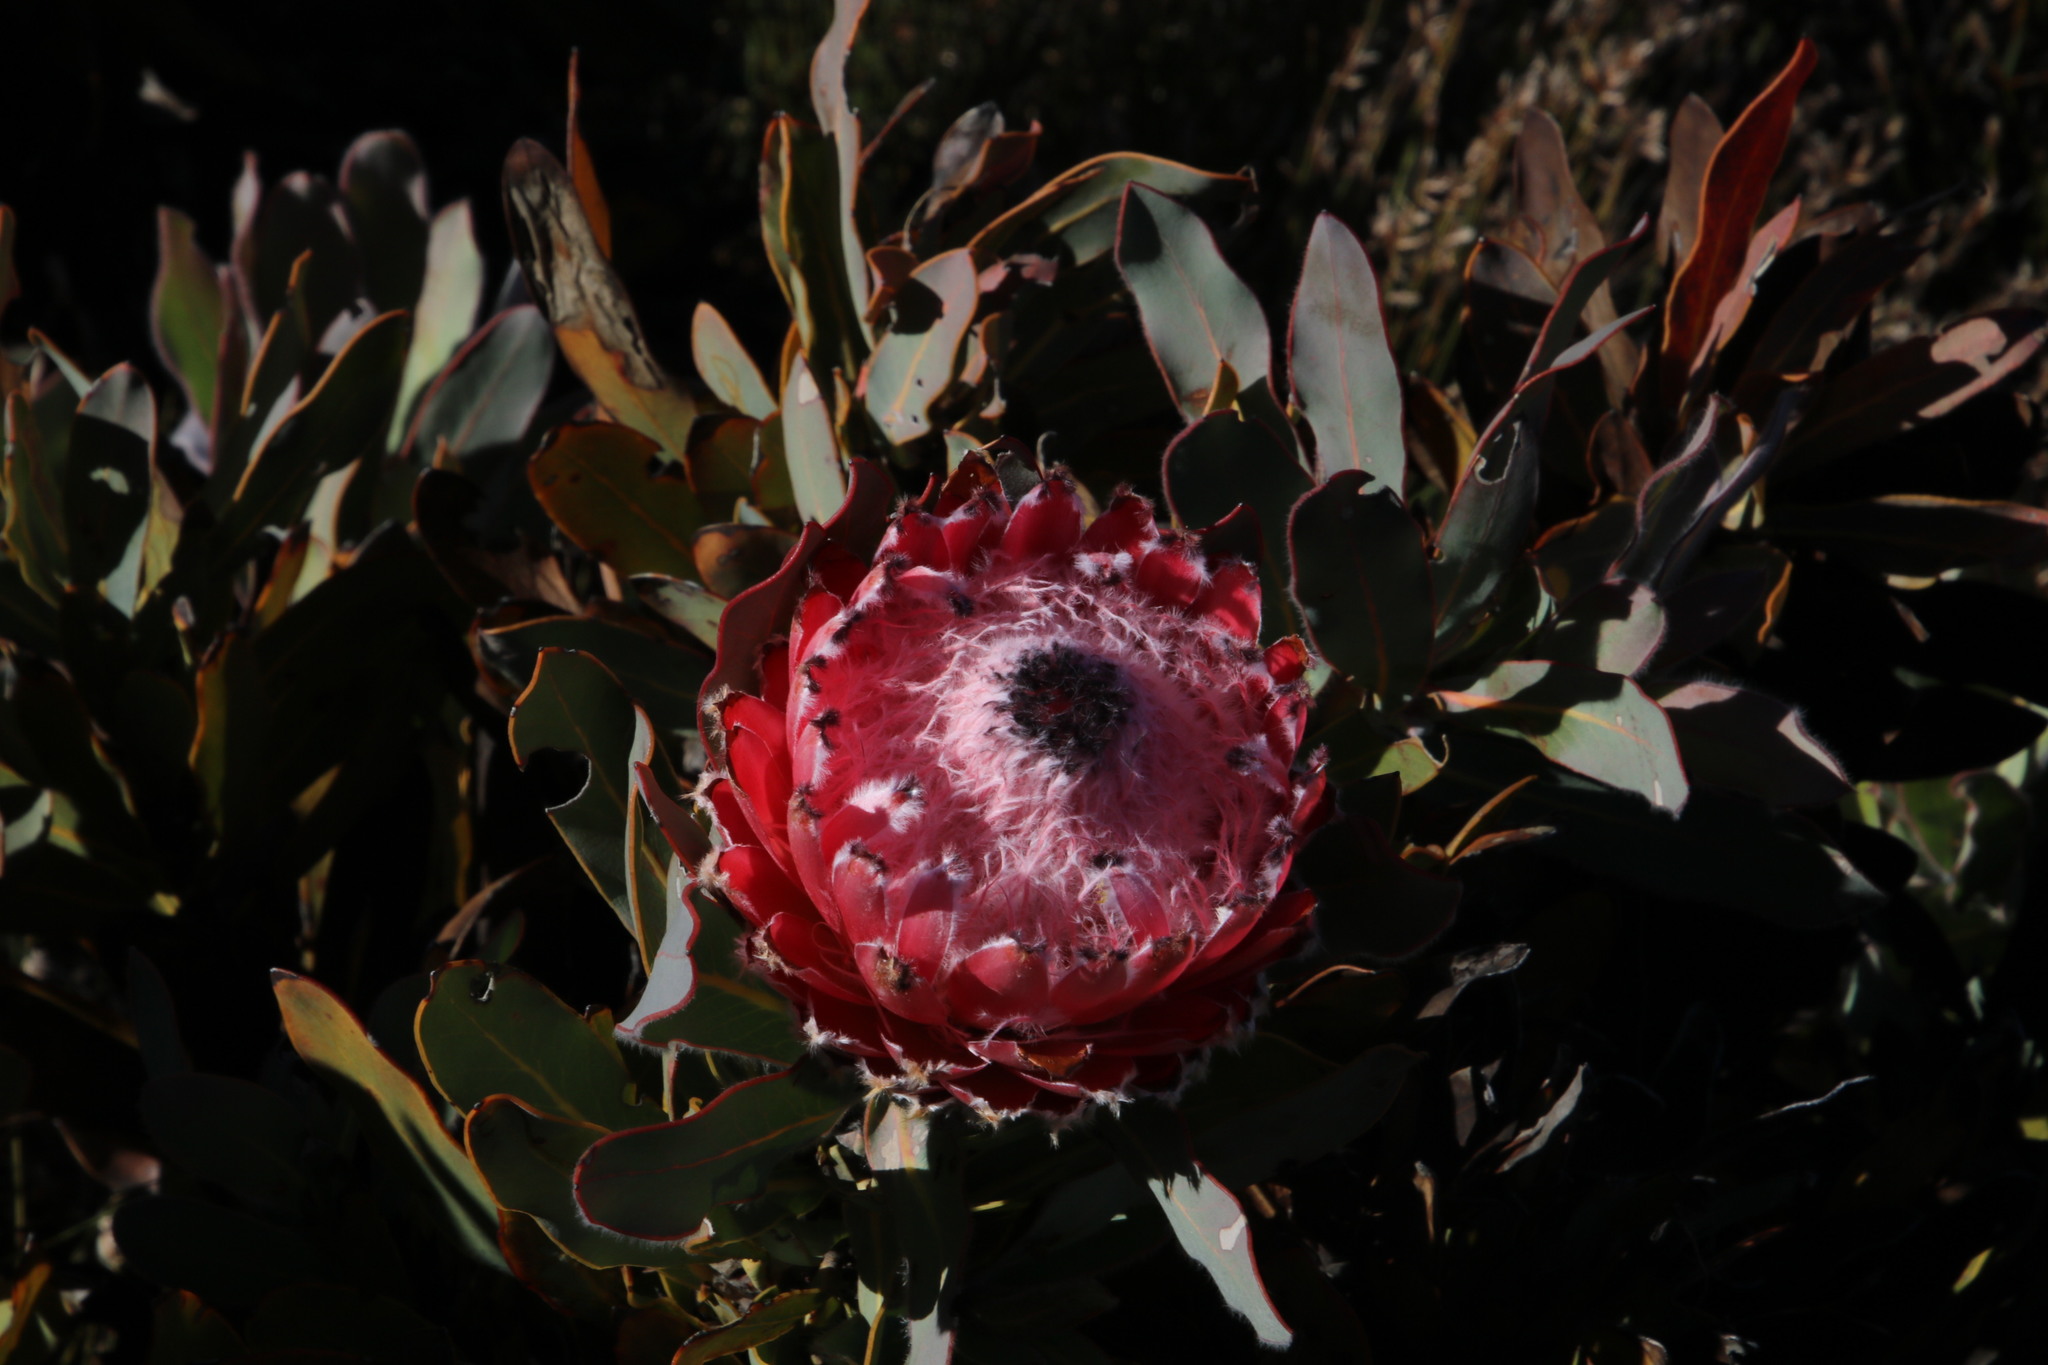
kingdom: Plantae
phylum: Tracheophyta
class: Magnoliopsida
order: Proteales
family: Proteaceae
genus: Protea
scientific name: Protea magnifica
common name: Bearded sugarbush
